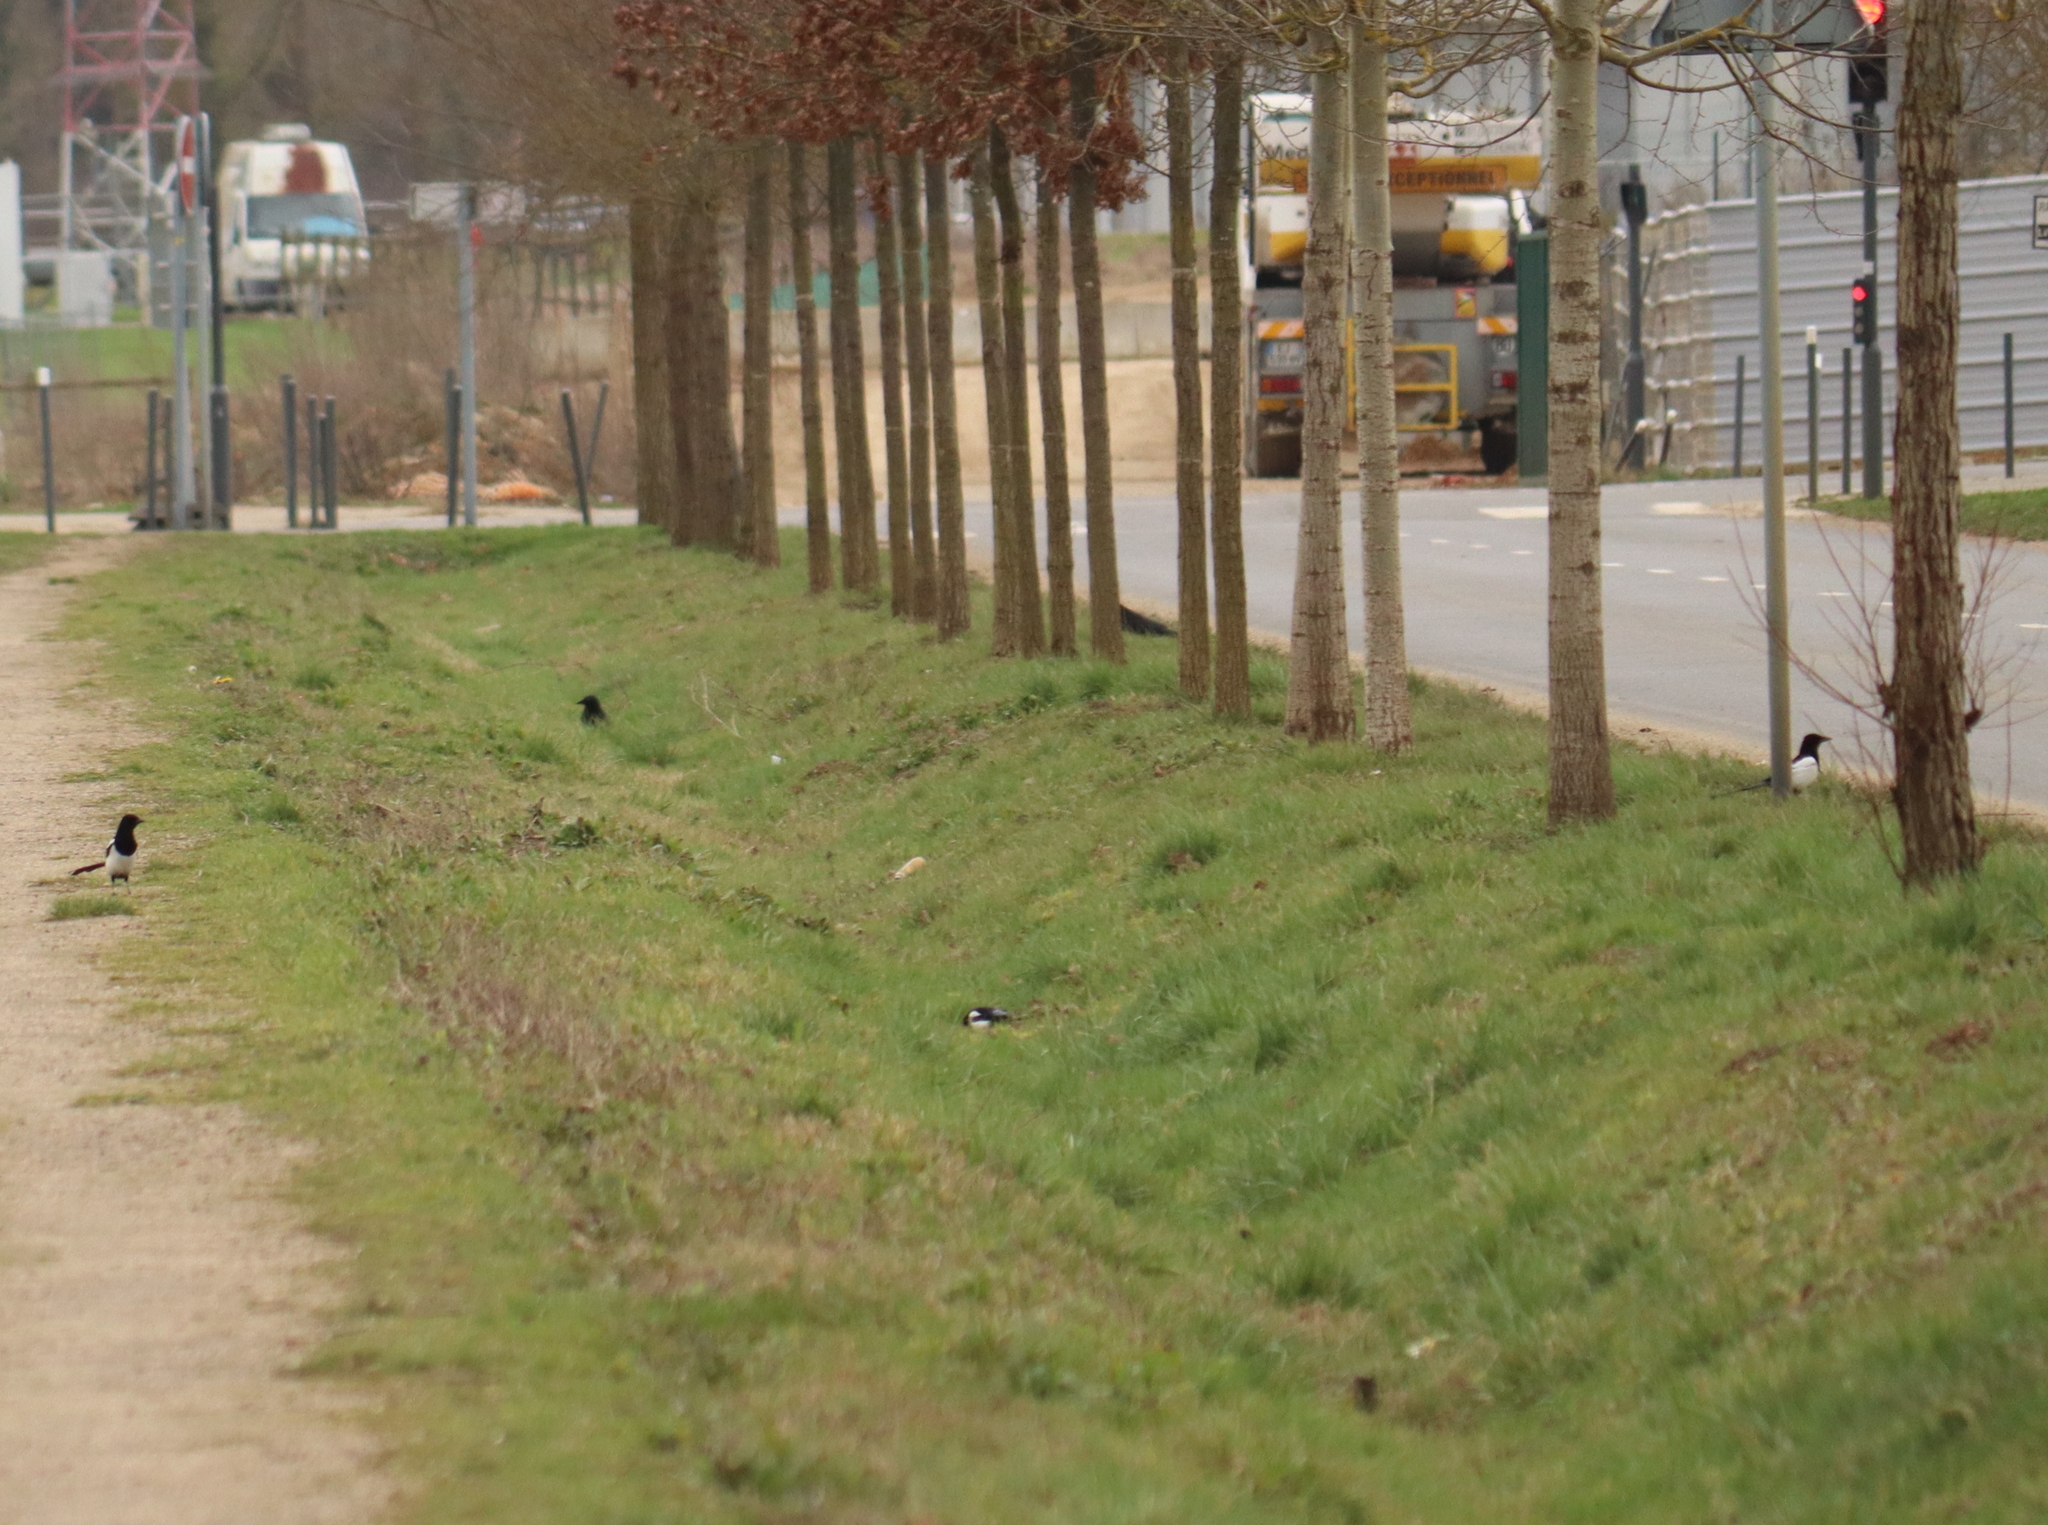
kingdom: Animalia
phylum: Chordata
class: Aves
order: Passeriformes
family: Corvidae
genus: Pica
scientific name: Pica pica
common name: Eurasian magpie
